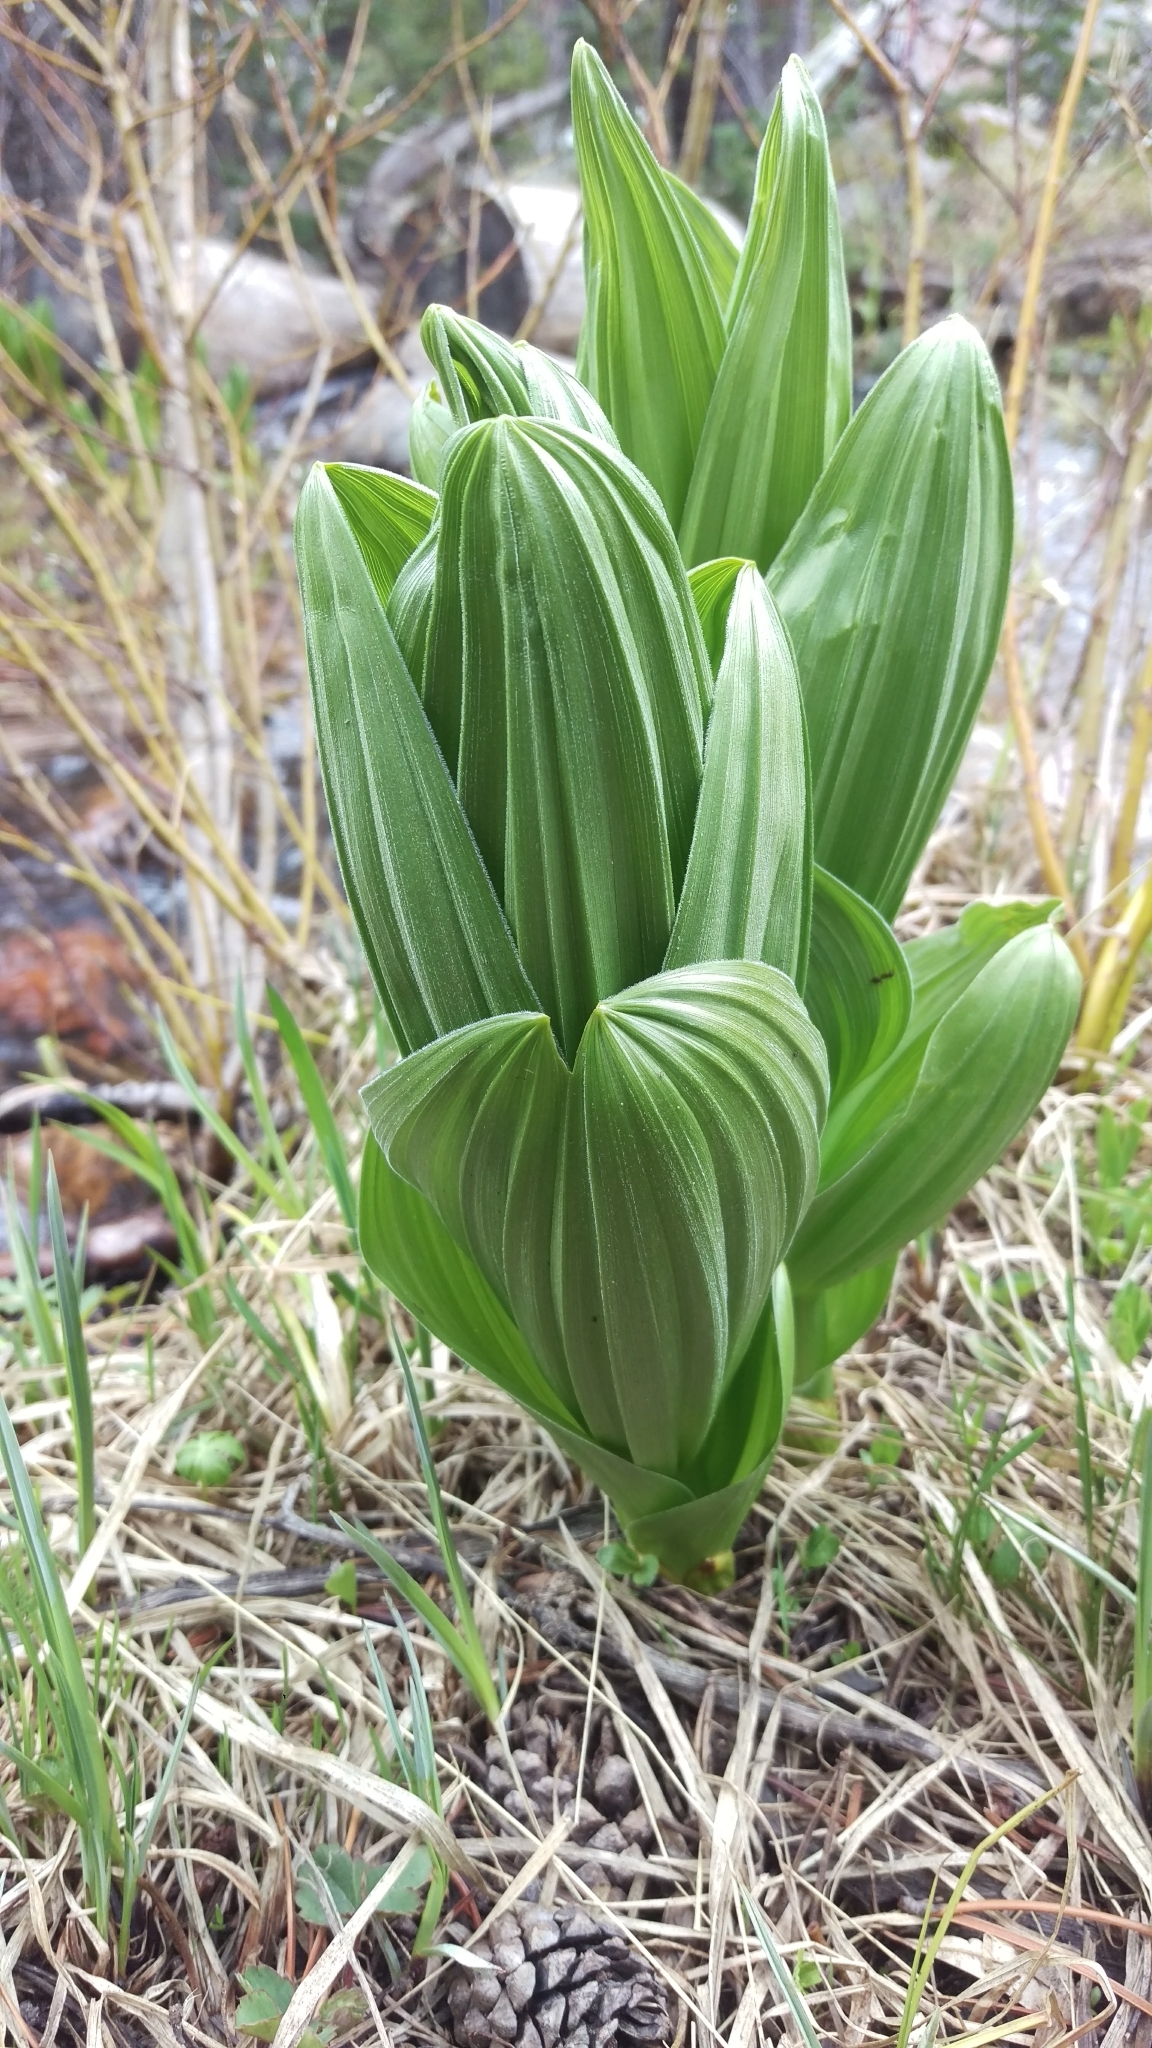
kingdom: Plantae
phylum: Tracheophyta
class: Liliopsida
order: Liliales
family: Melanthiaceae
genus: Veratrum
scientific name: Veratrum californicum
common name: California veratrum
